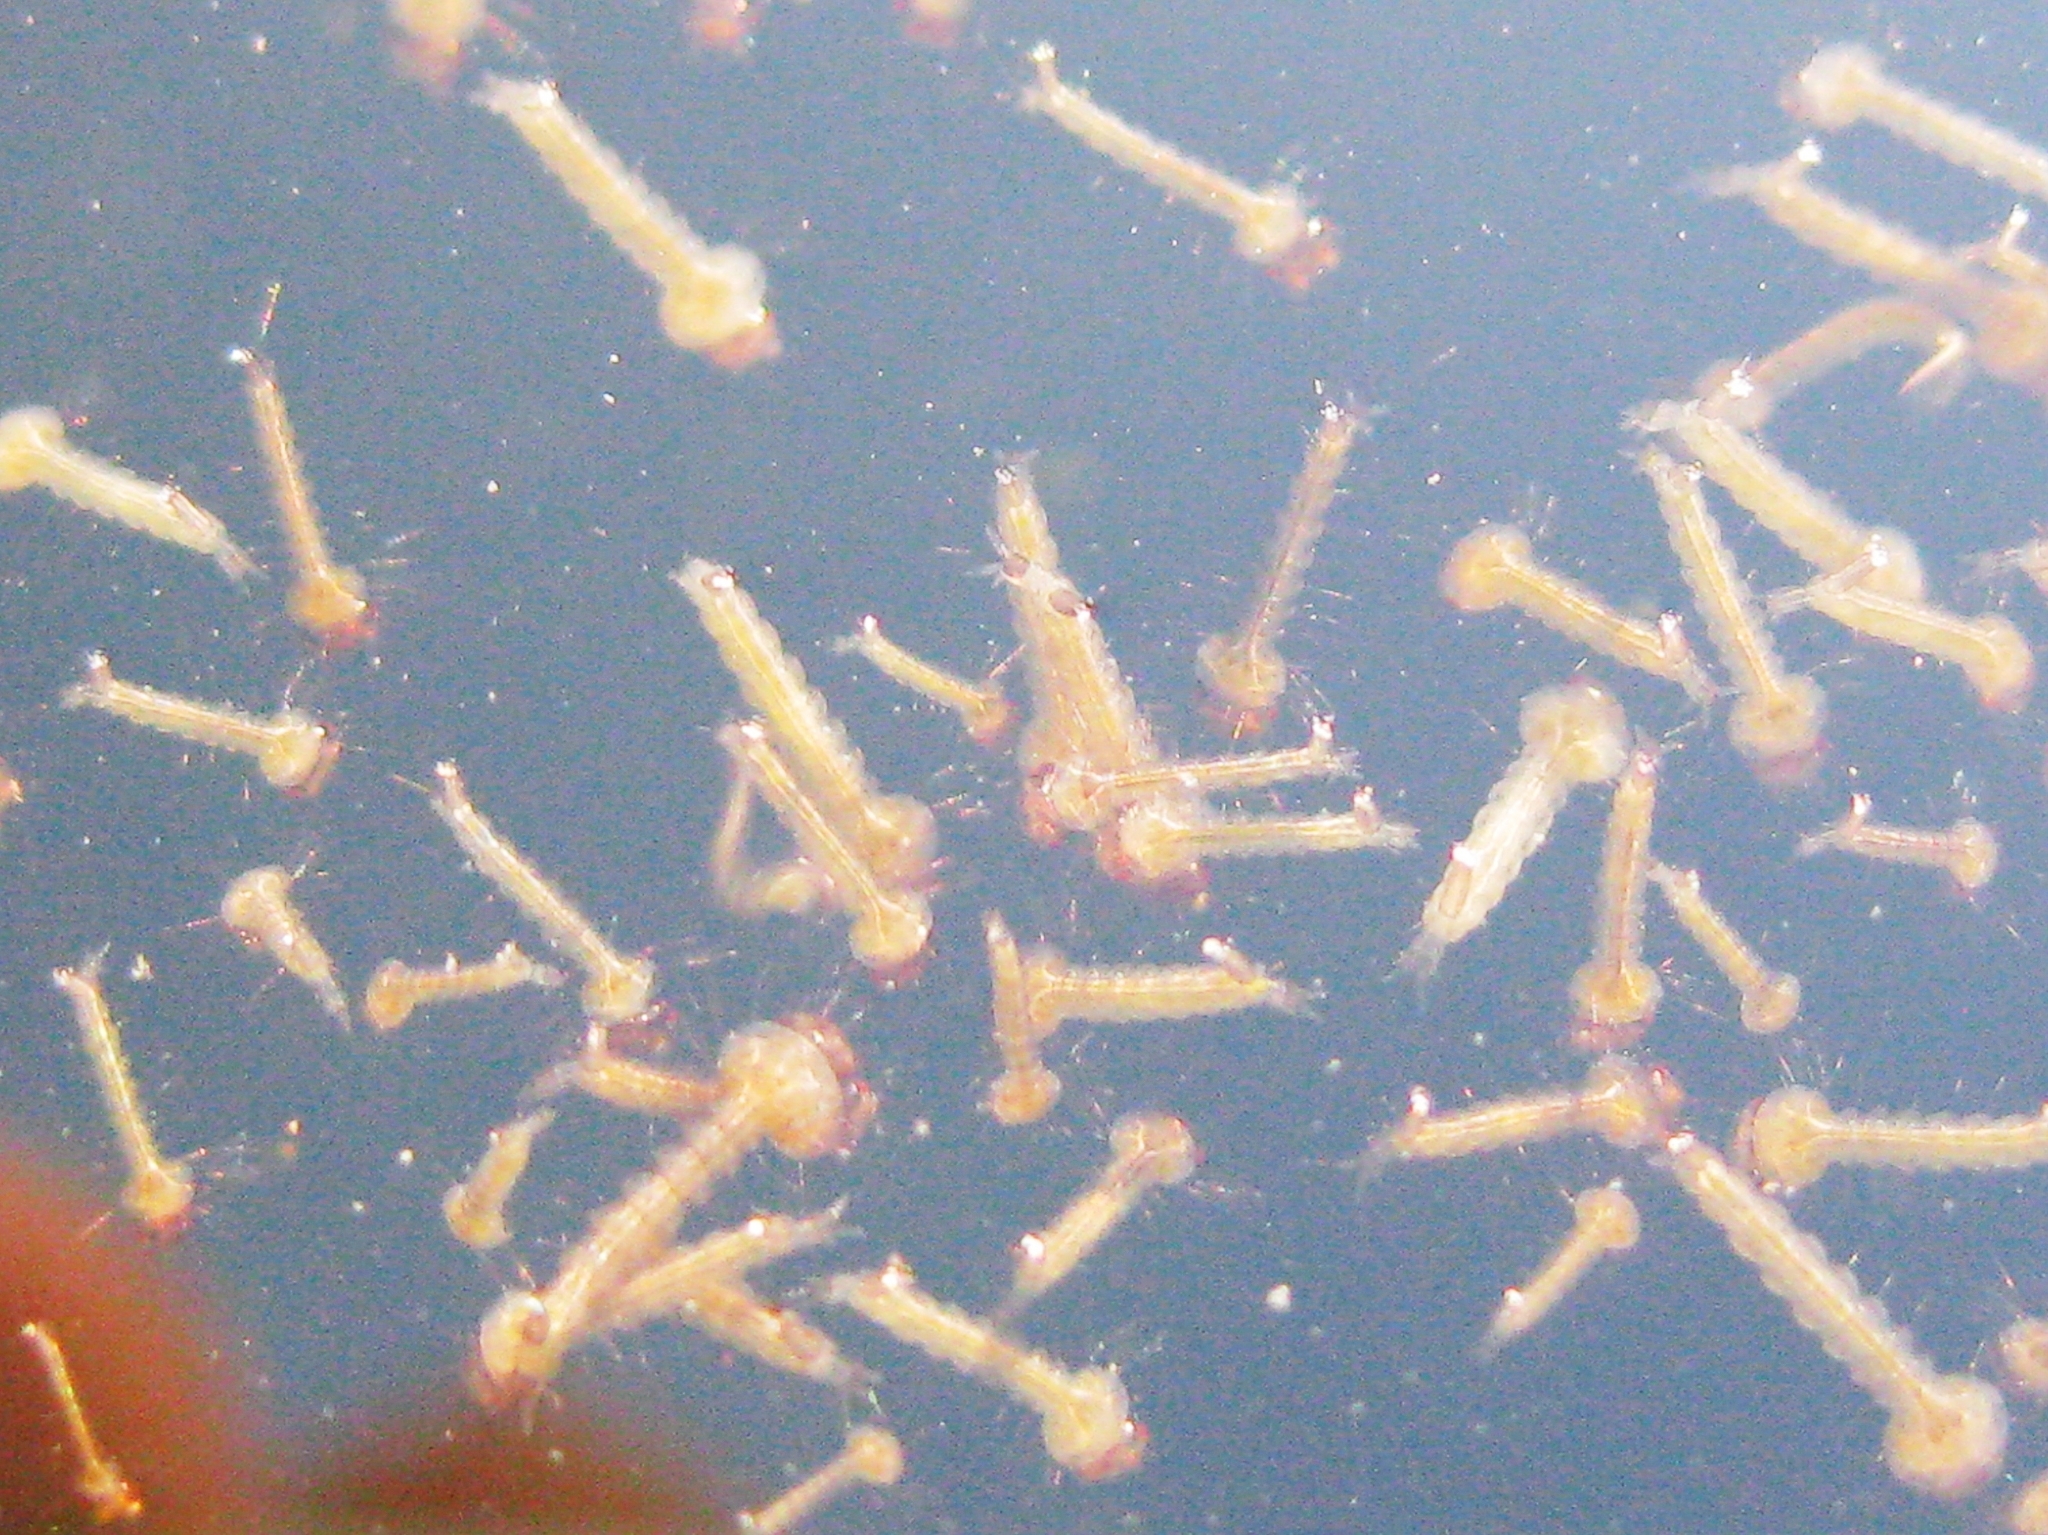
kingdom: Animalia
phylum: Arthropoda
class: Insecta
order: Diptera
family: Culicidae
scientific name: Culicidae
